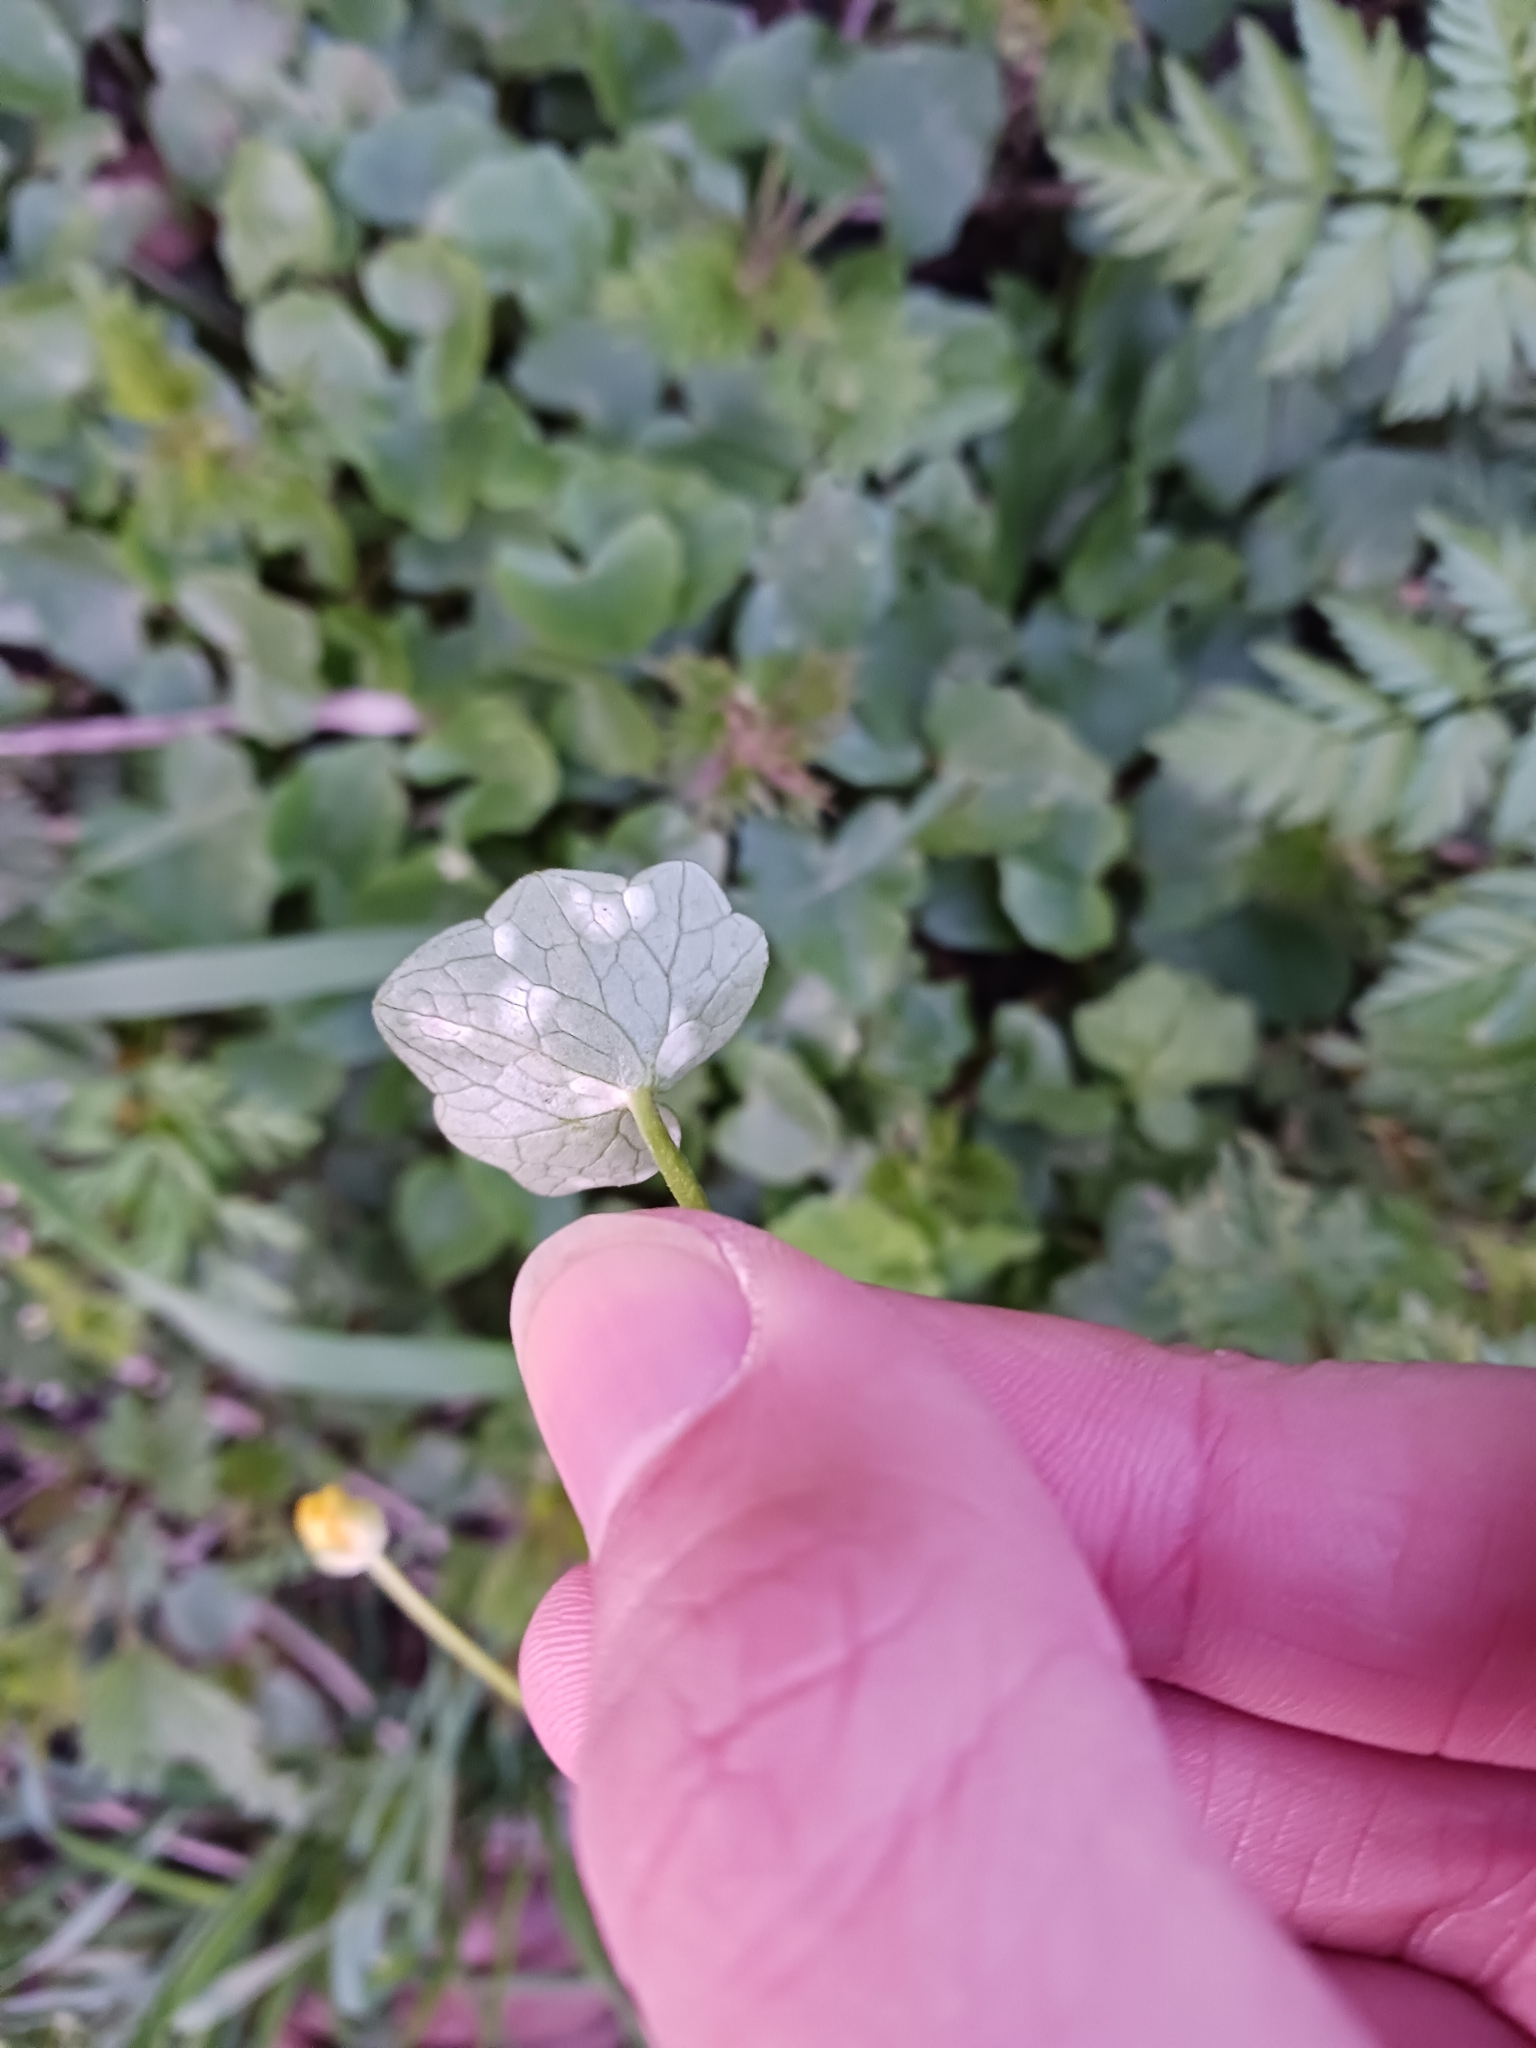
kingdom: Fungi
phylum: Basidiomycota
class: Exobasidiomycetes
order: Entylomatales
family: Entylomataceae
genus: Entyloma
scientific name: Entyloma ficariae
